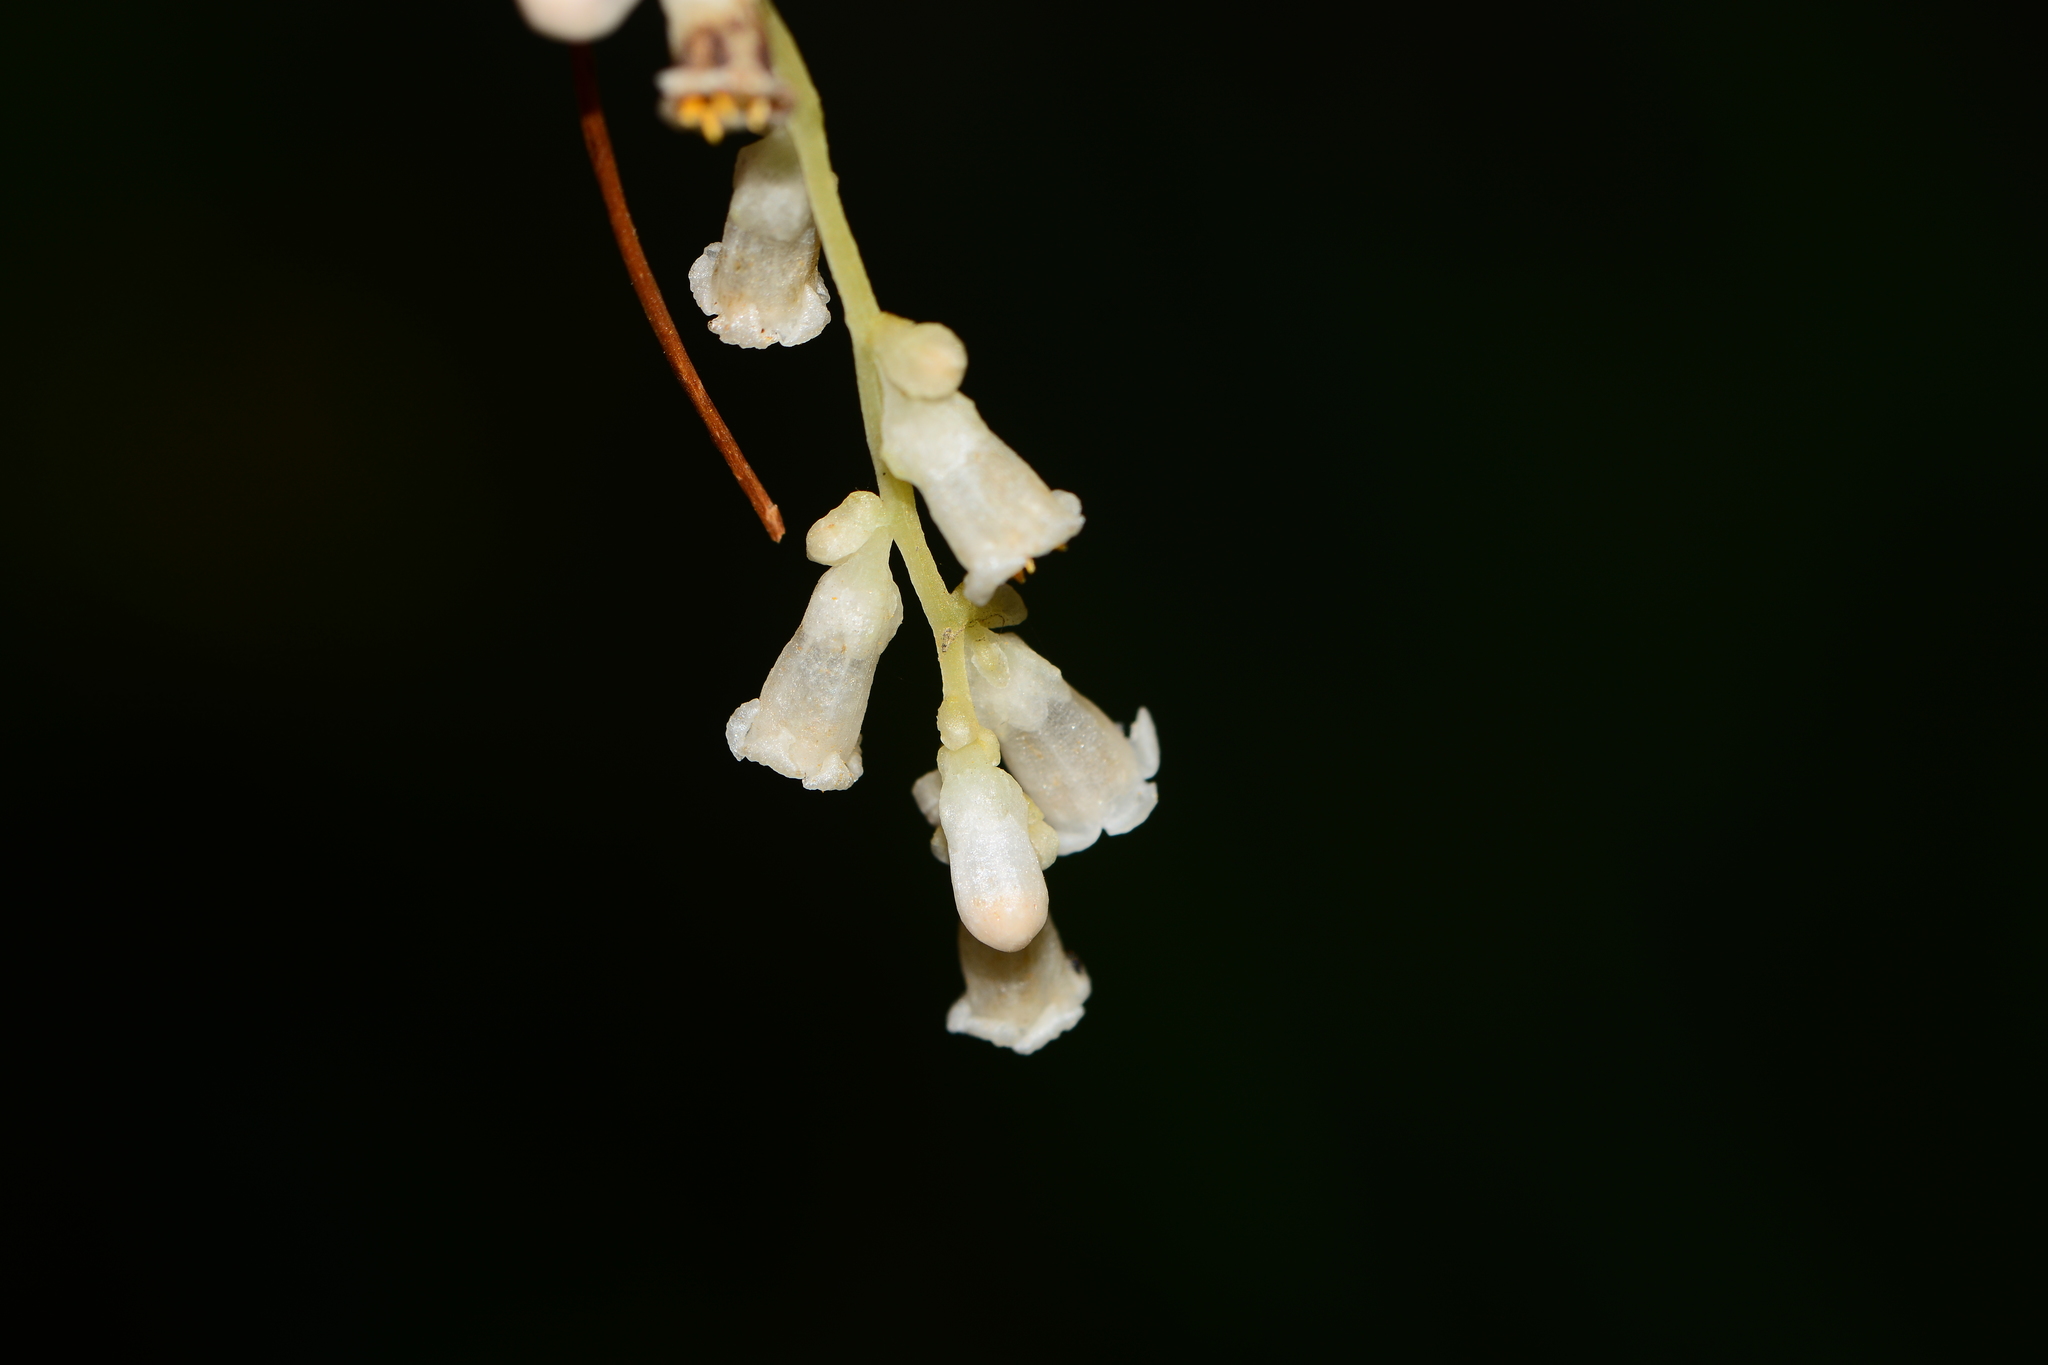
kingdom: Plantae
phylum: Tracheophyta
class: Magnoliopsida
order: Solanales
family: Convolvulaceae
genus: Cuscuta
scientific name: Cuscuta reflexa
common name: Giant dodder
